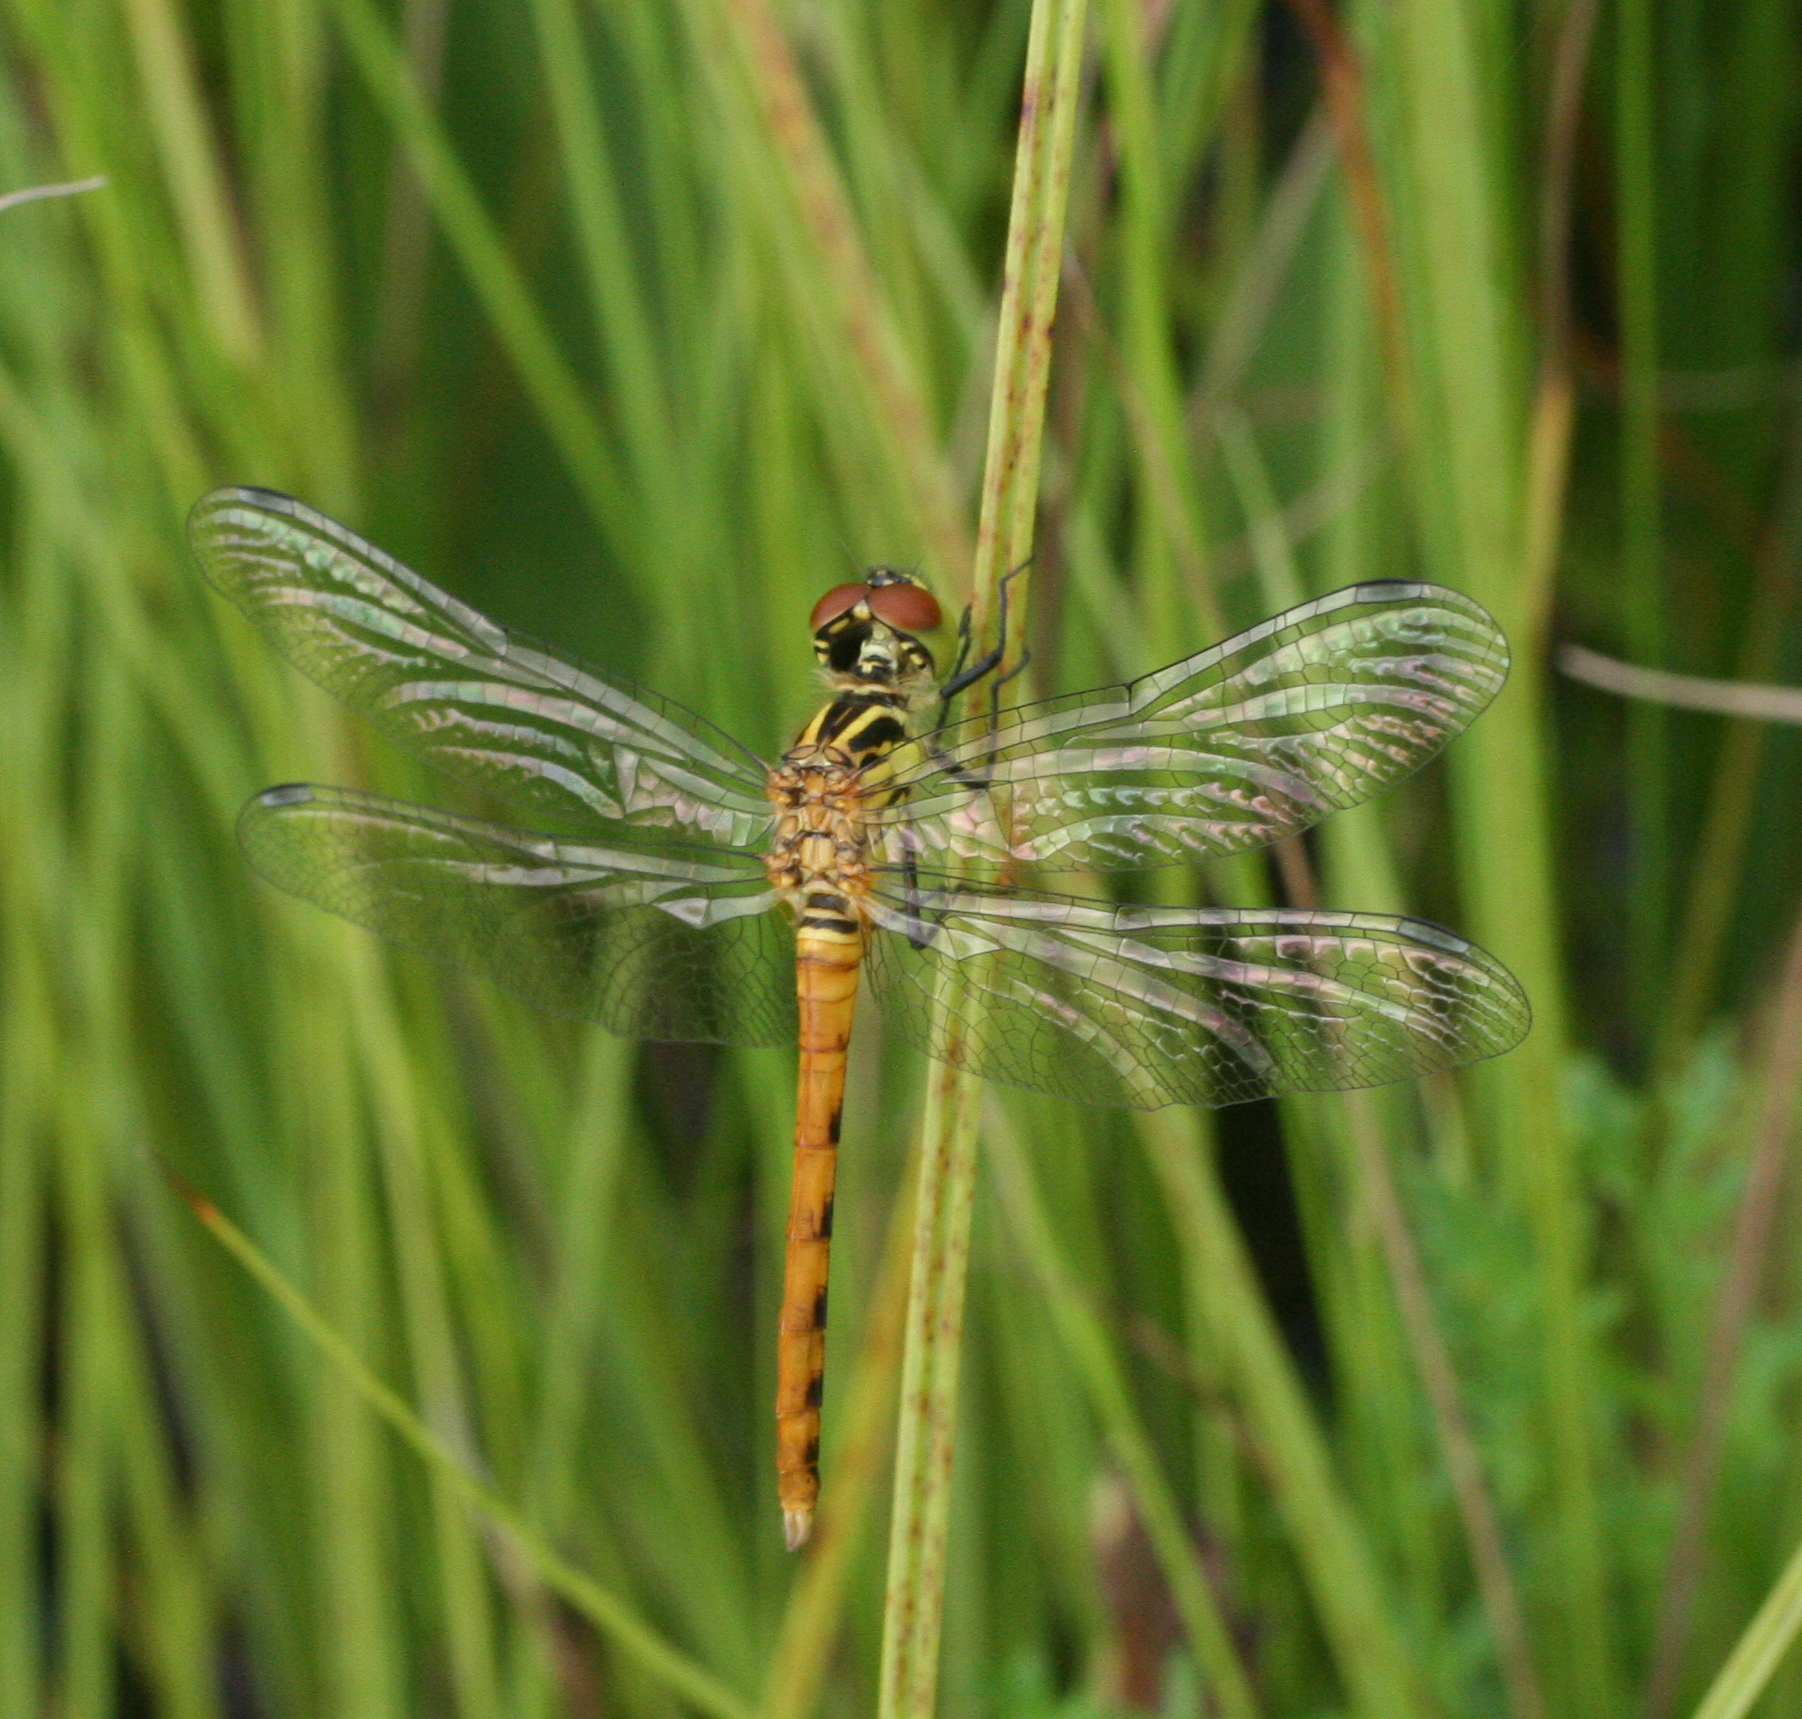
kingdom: Animalia
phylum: Arthropoda
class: Insecta
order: Odonata
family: Libellulidae
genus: Sympetrum
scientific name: Sympetrum kunckeli
